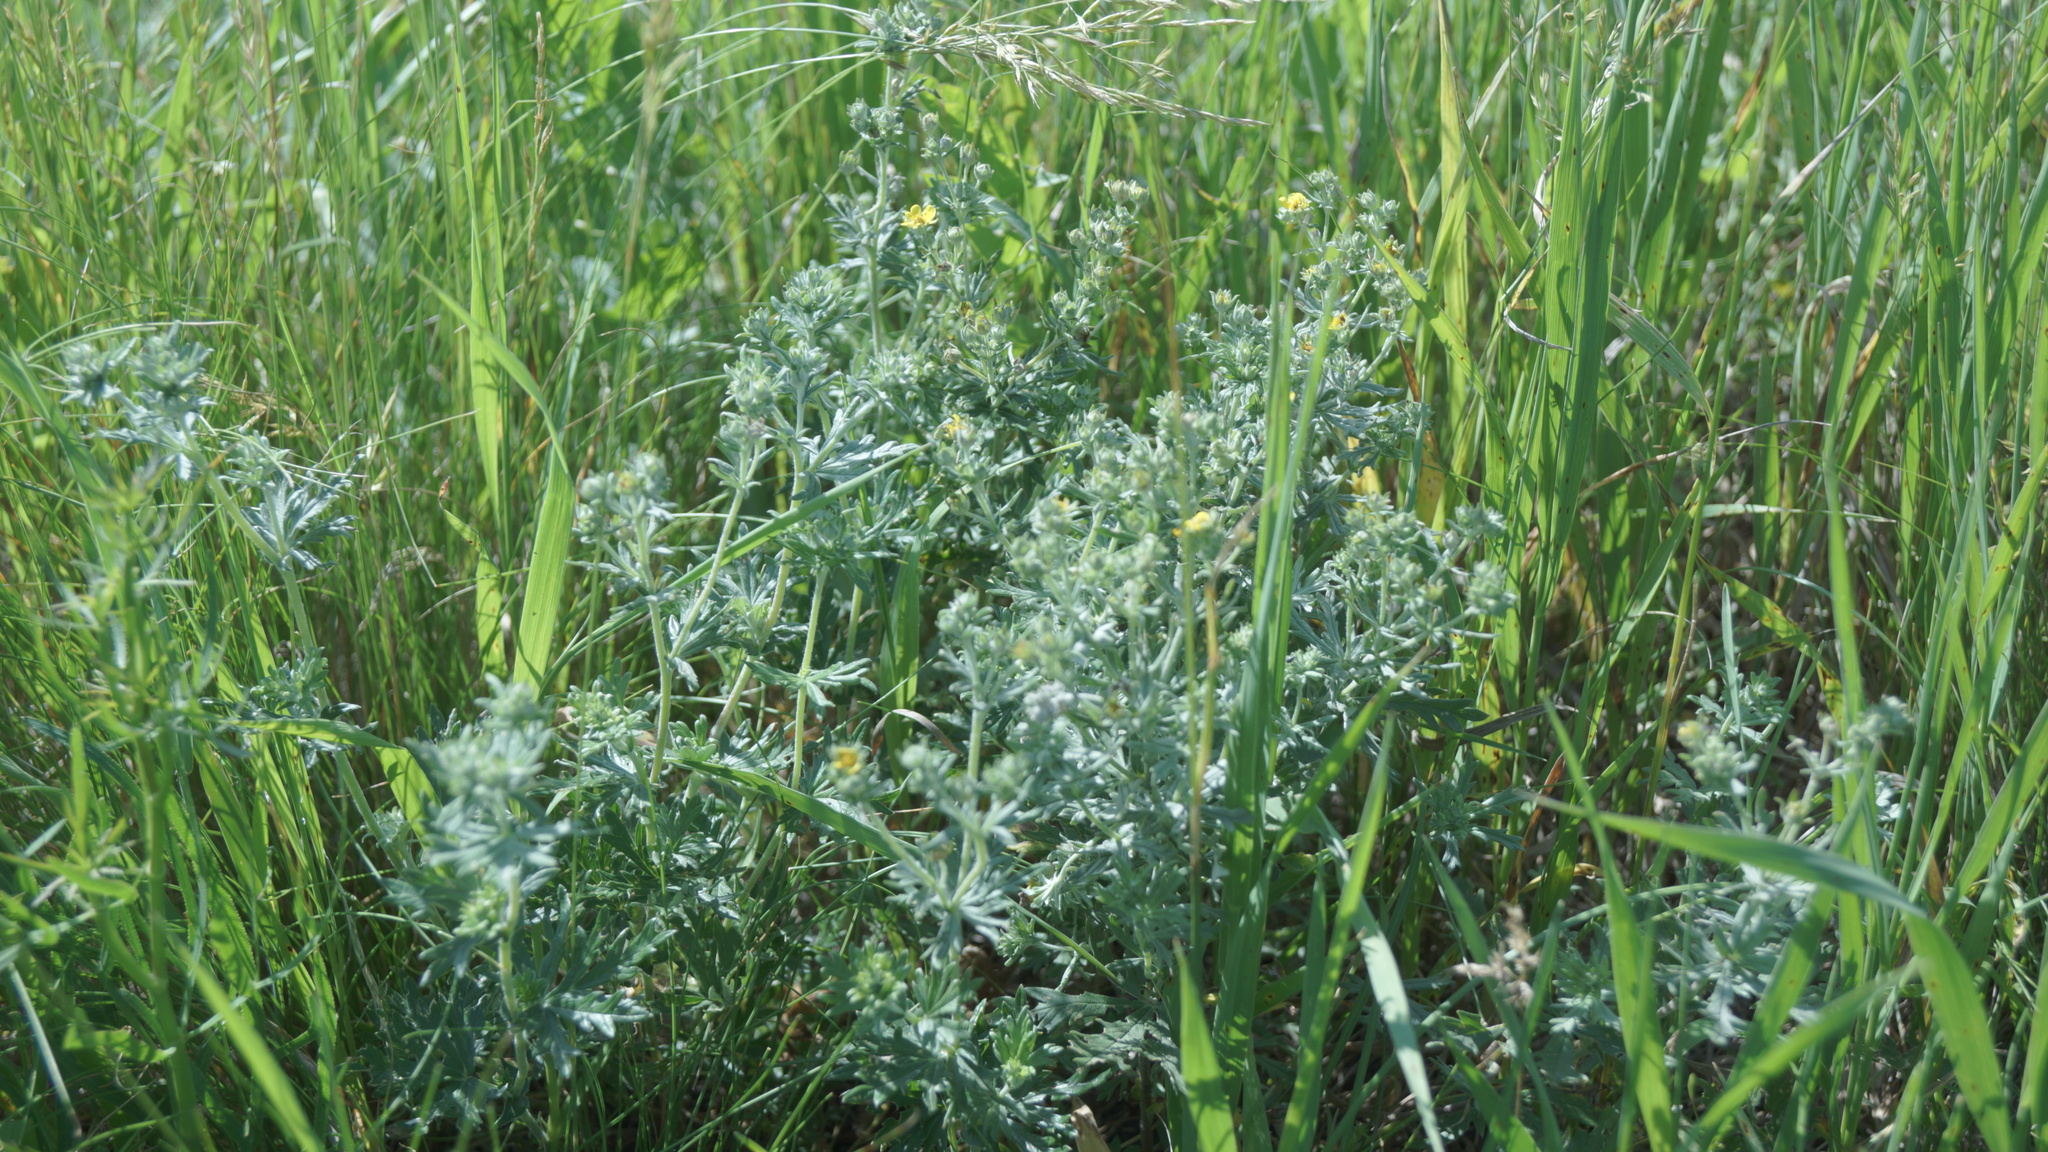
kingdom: Plantae
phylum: Tracheophyta
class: Magnoliopsida
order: Rosales
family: Rosaceae
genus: Potentilla
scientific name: Potentilla argentea
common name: Hoary cinquefoil
